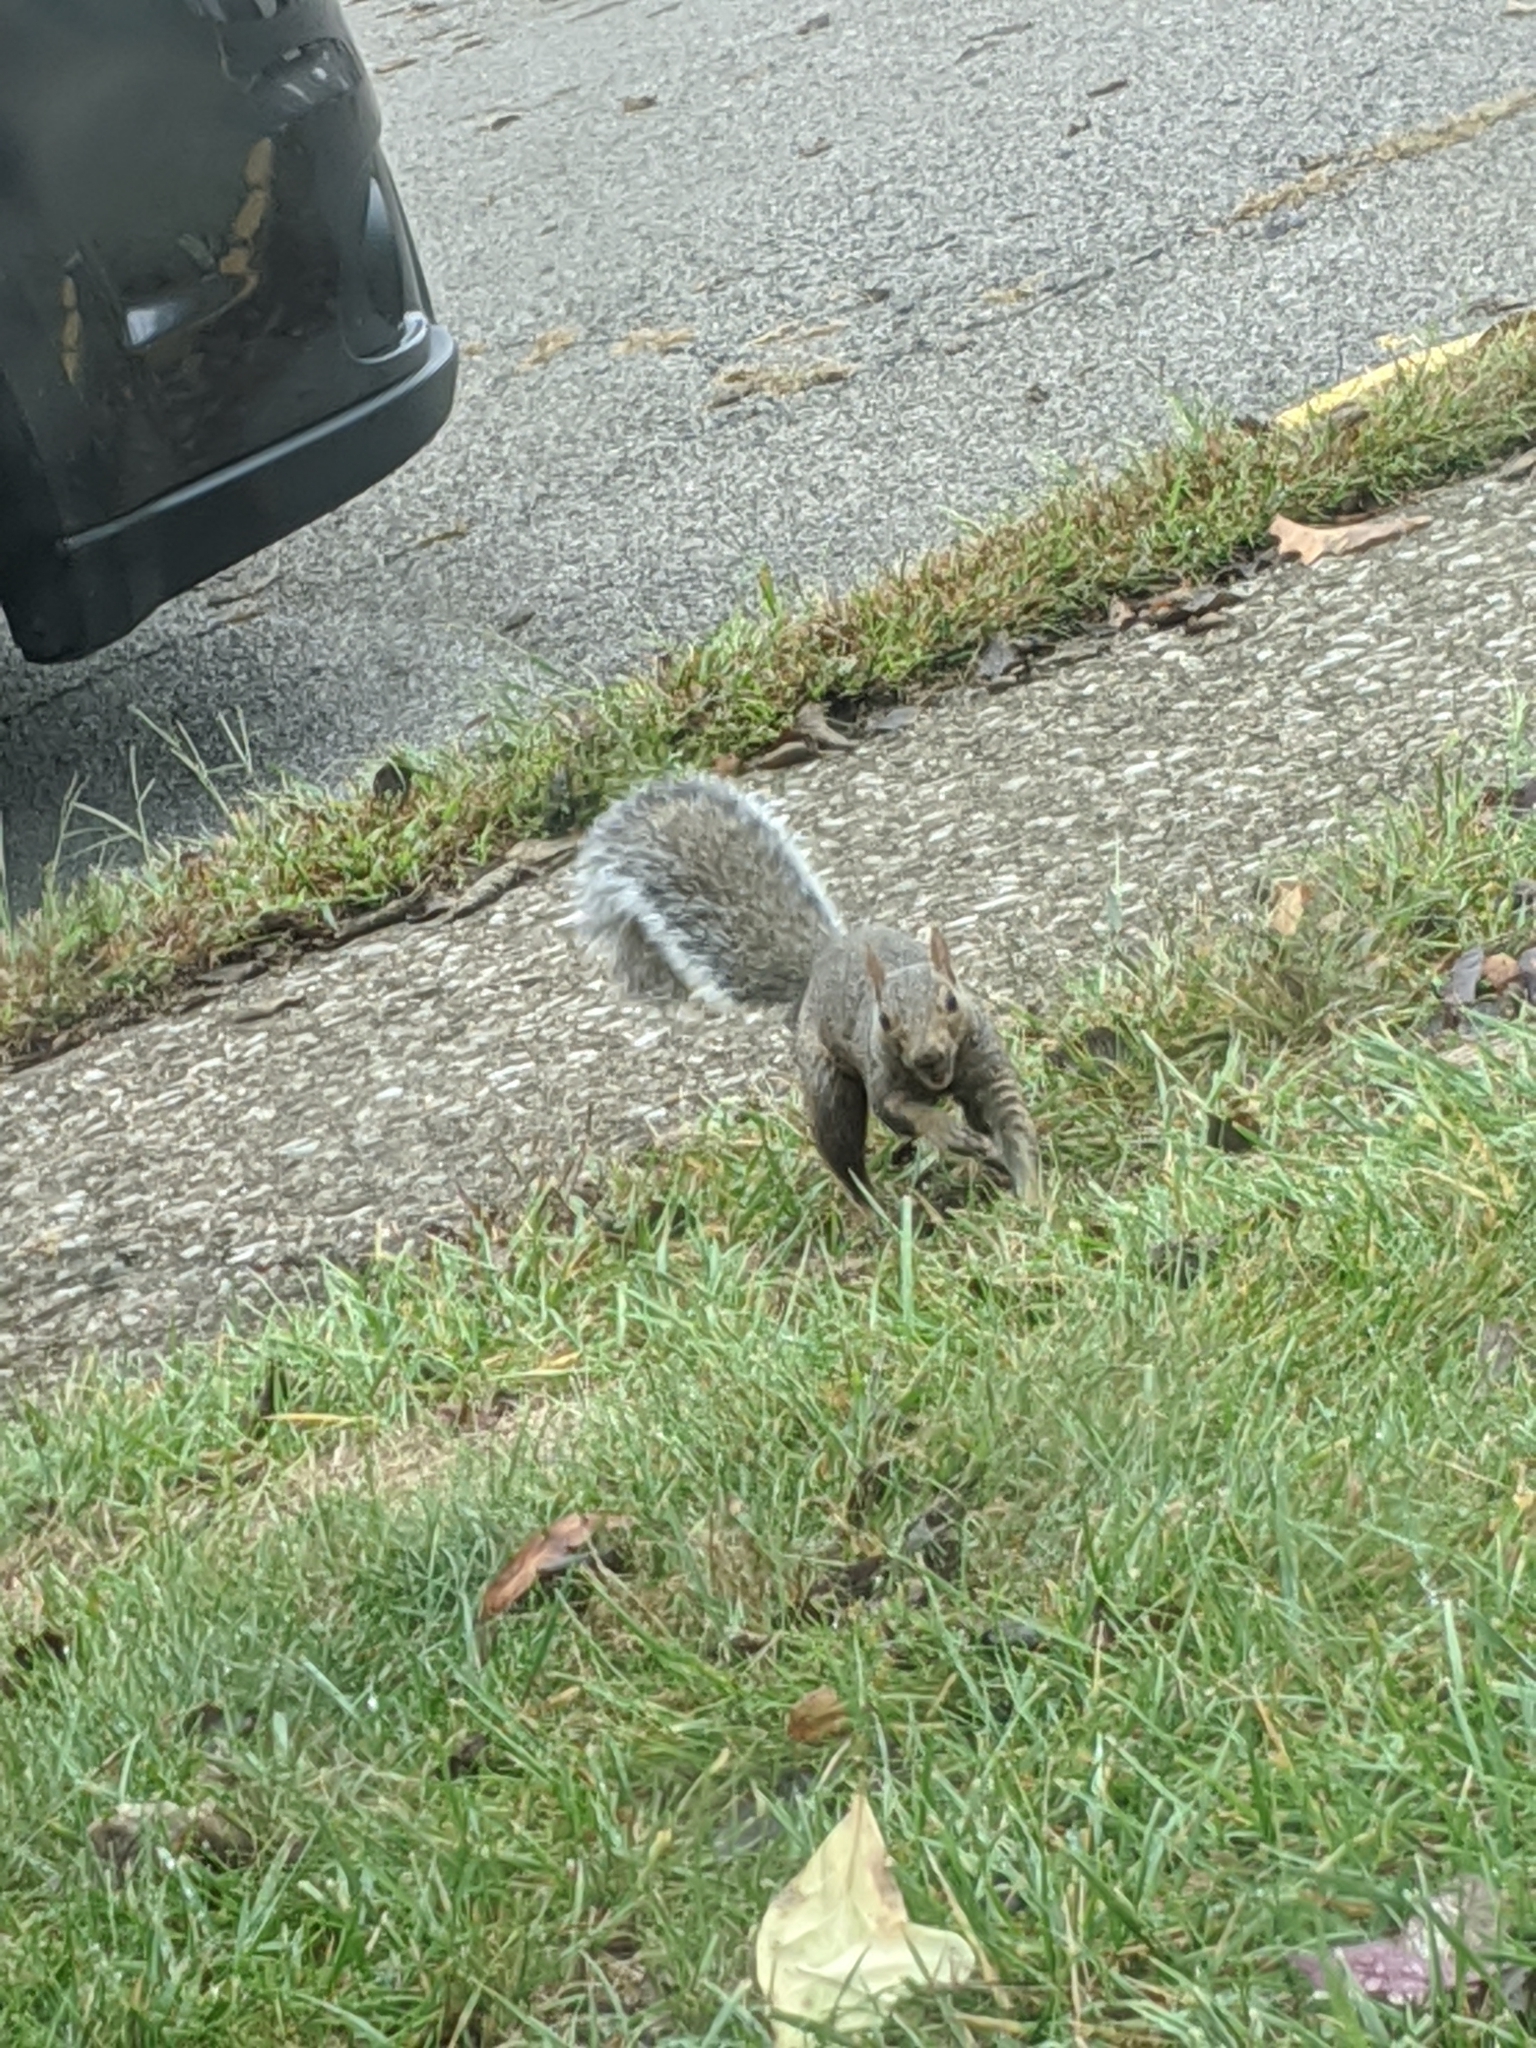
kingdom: Animalia
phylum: Chordata
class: Mammalia
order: Rodentia
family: Sciuridae
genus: Sciurus
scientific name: Sciurus carolinensis
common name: Eastern gray squirrel
